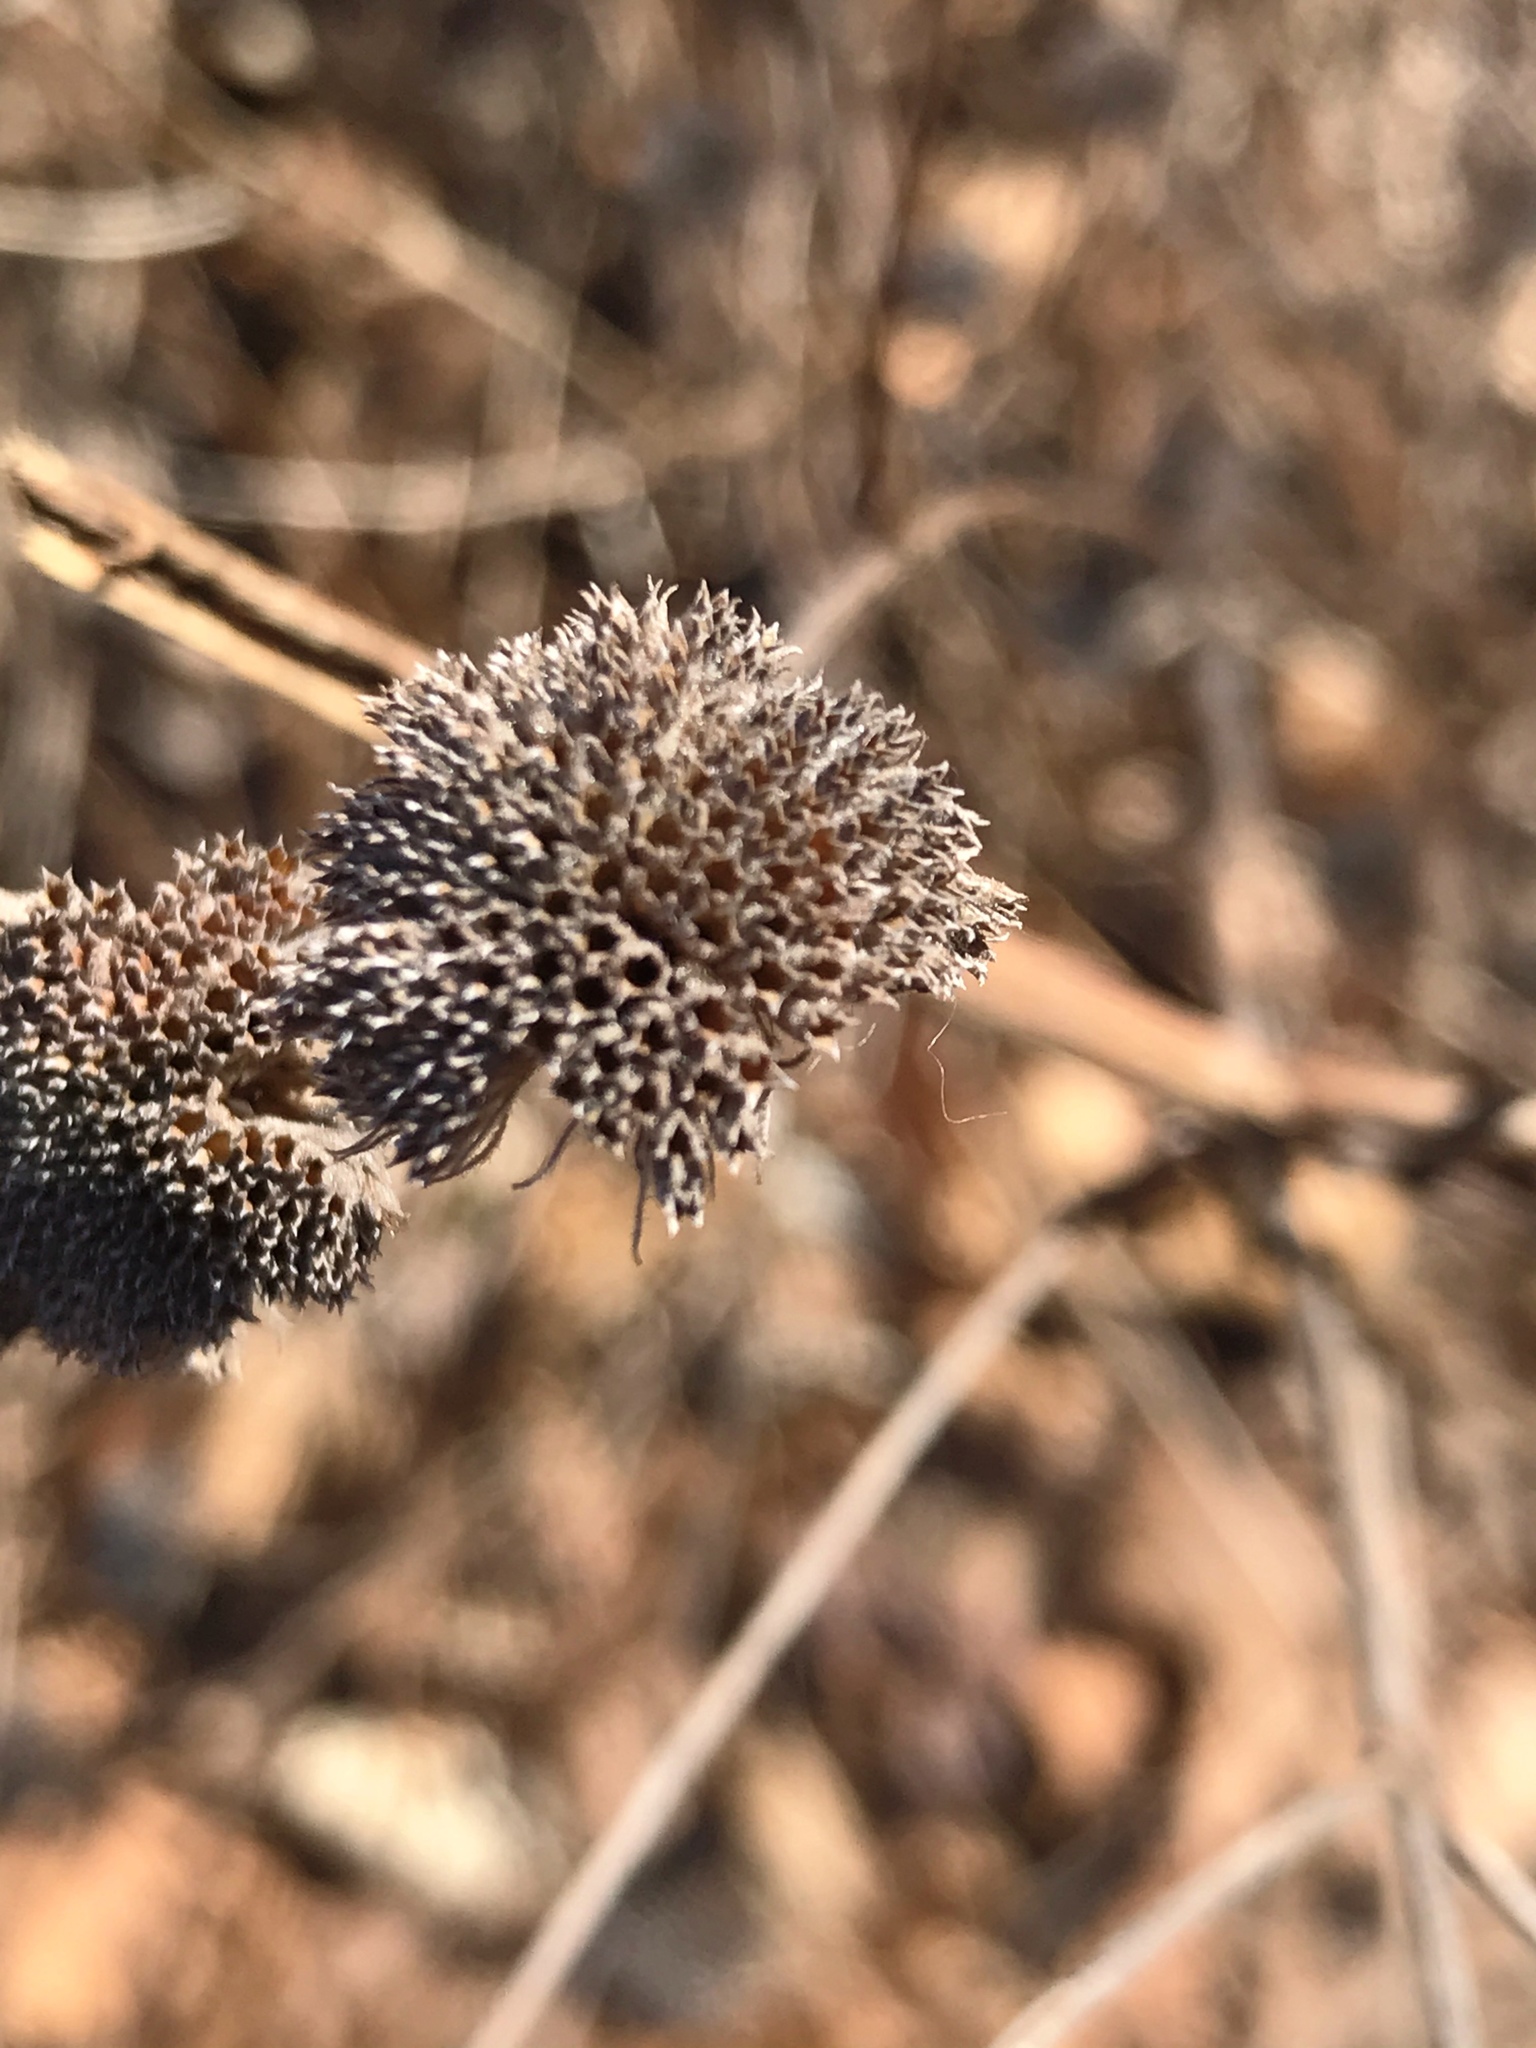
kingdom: Plantae
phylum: Tracheophyta
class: Magnoliopsida
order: Lamiales
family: Lamiaceae
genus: Pycnanthemum
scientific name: Pycnanthemum muticum
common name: Blunt mountain-mint
